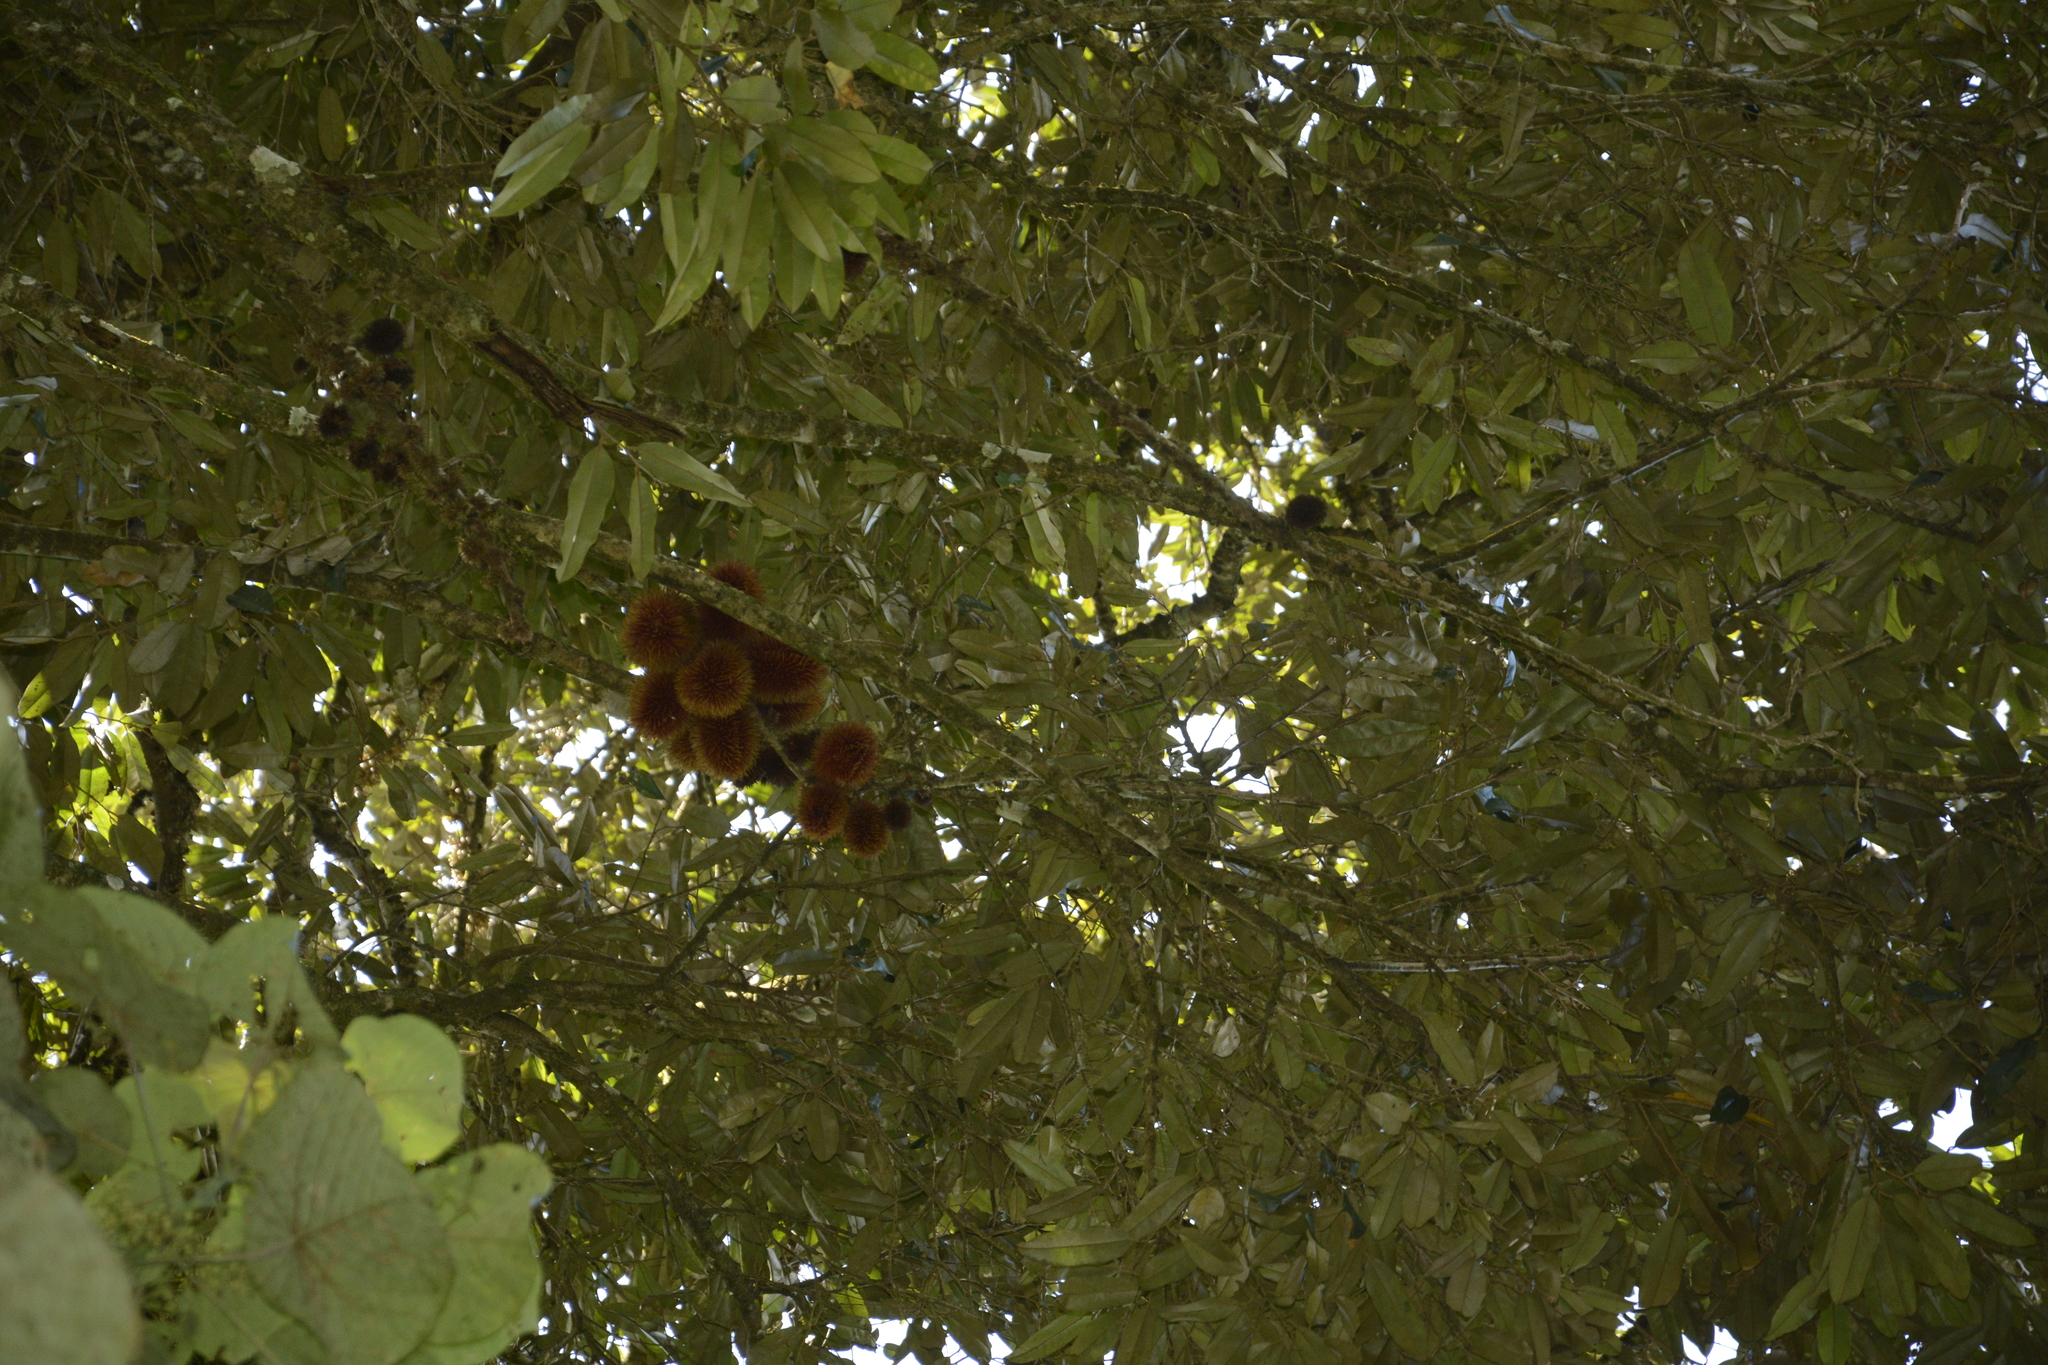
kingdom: Plantae
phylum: Tracheophyta
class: Magnoliopsida
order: Malvales
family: Malvaceae
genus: Cullenia
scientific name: Cullenia exarillata
